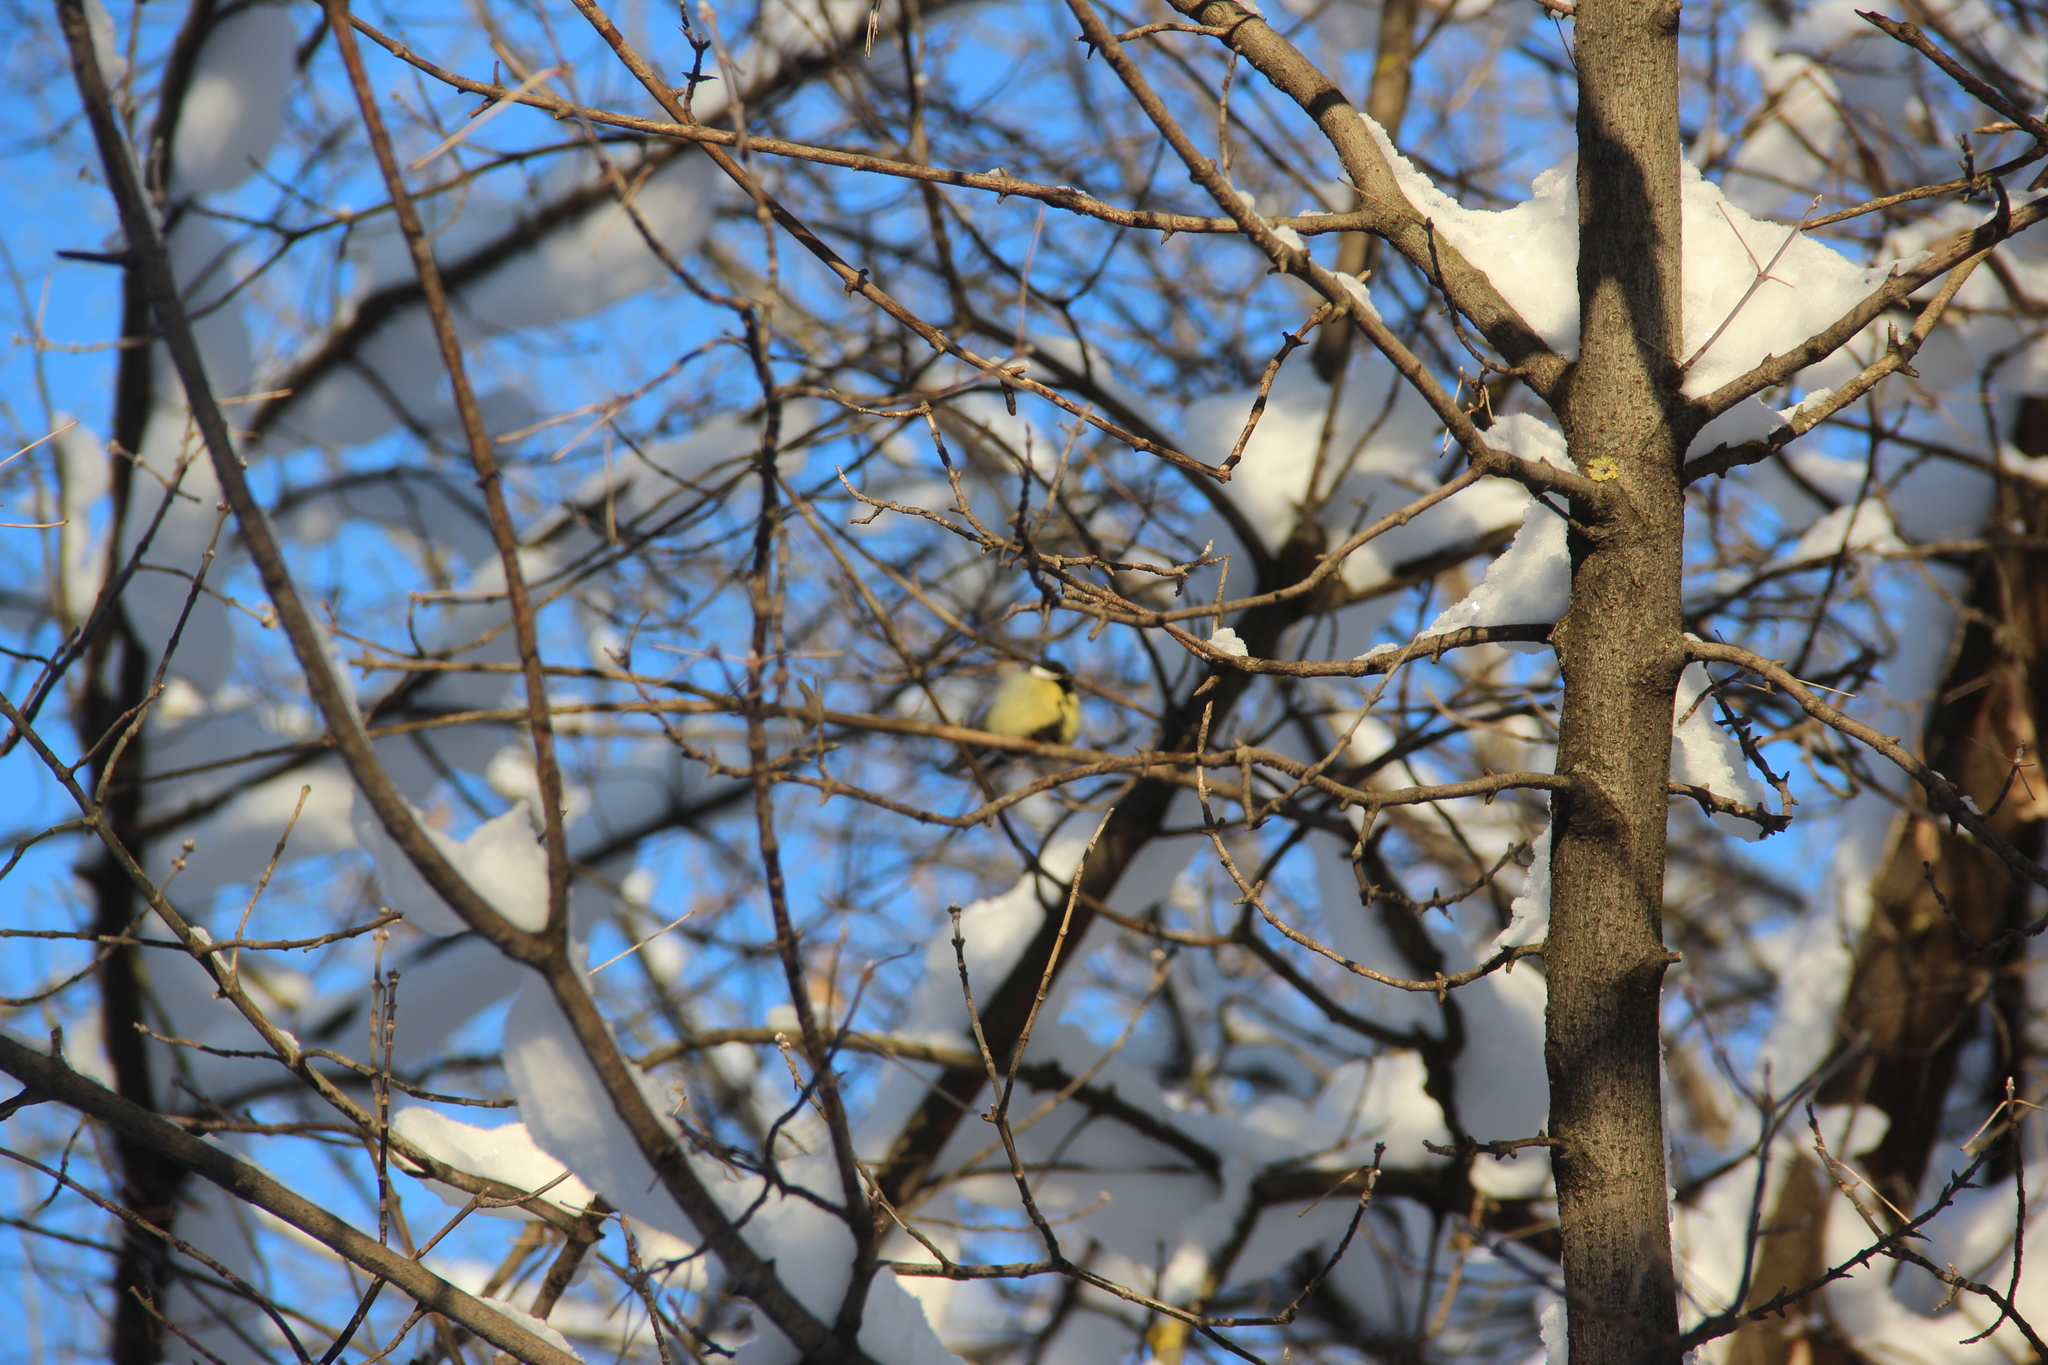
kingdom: Animalia
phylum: Chordata
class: Aves
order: Passeriformes
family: Paridae
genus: Parus
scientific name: Parus major
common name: Great tit
